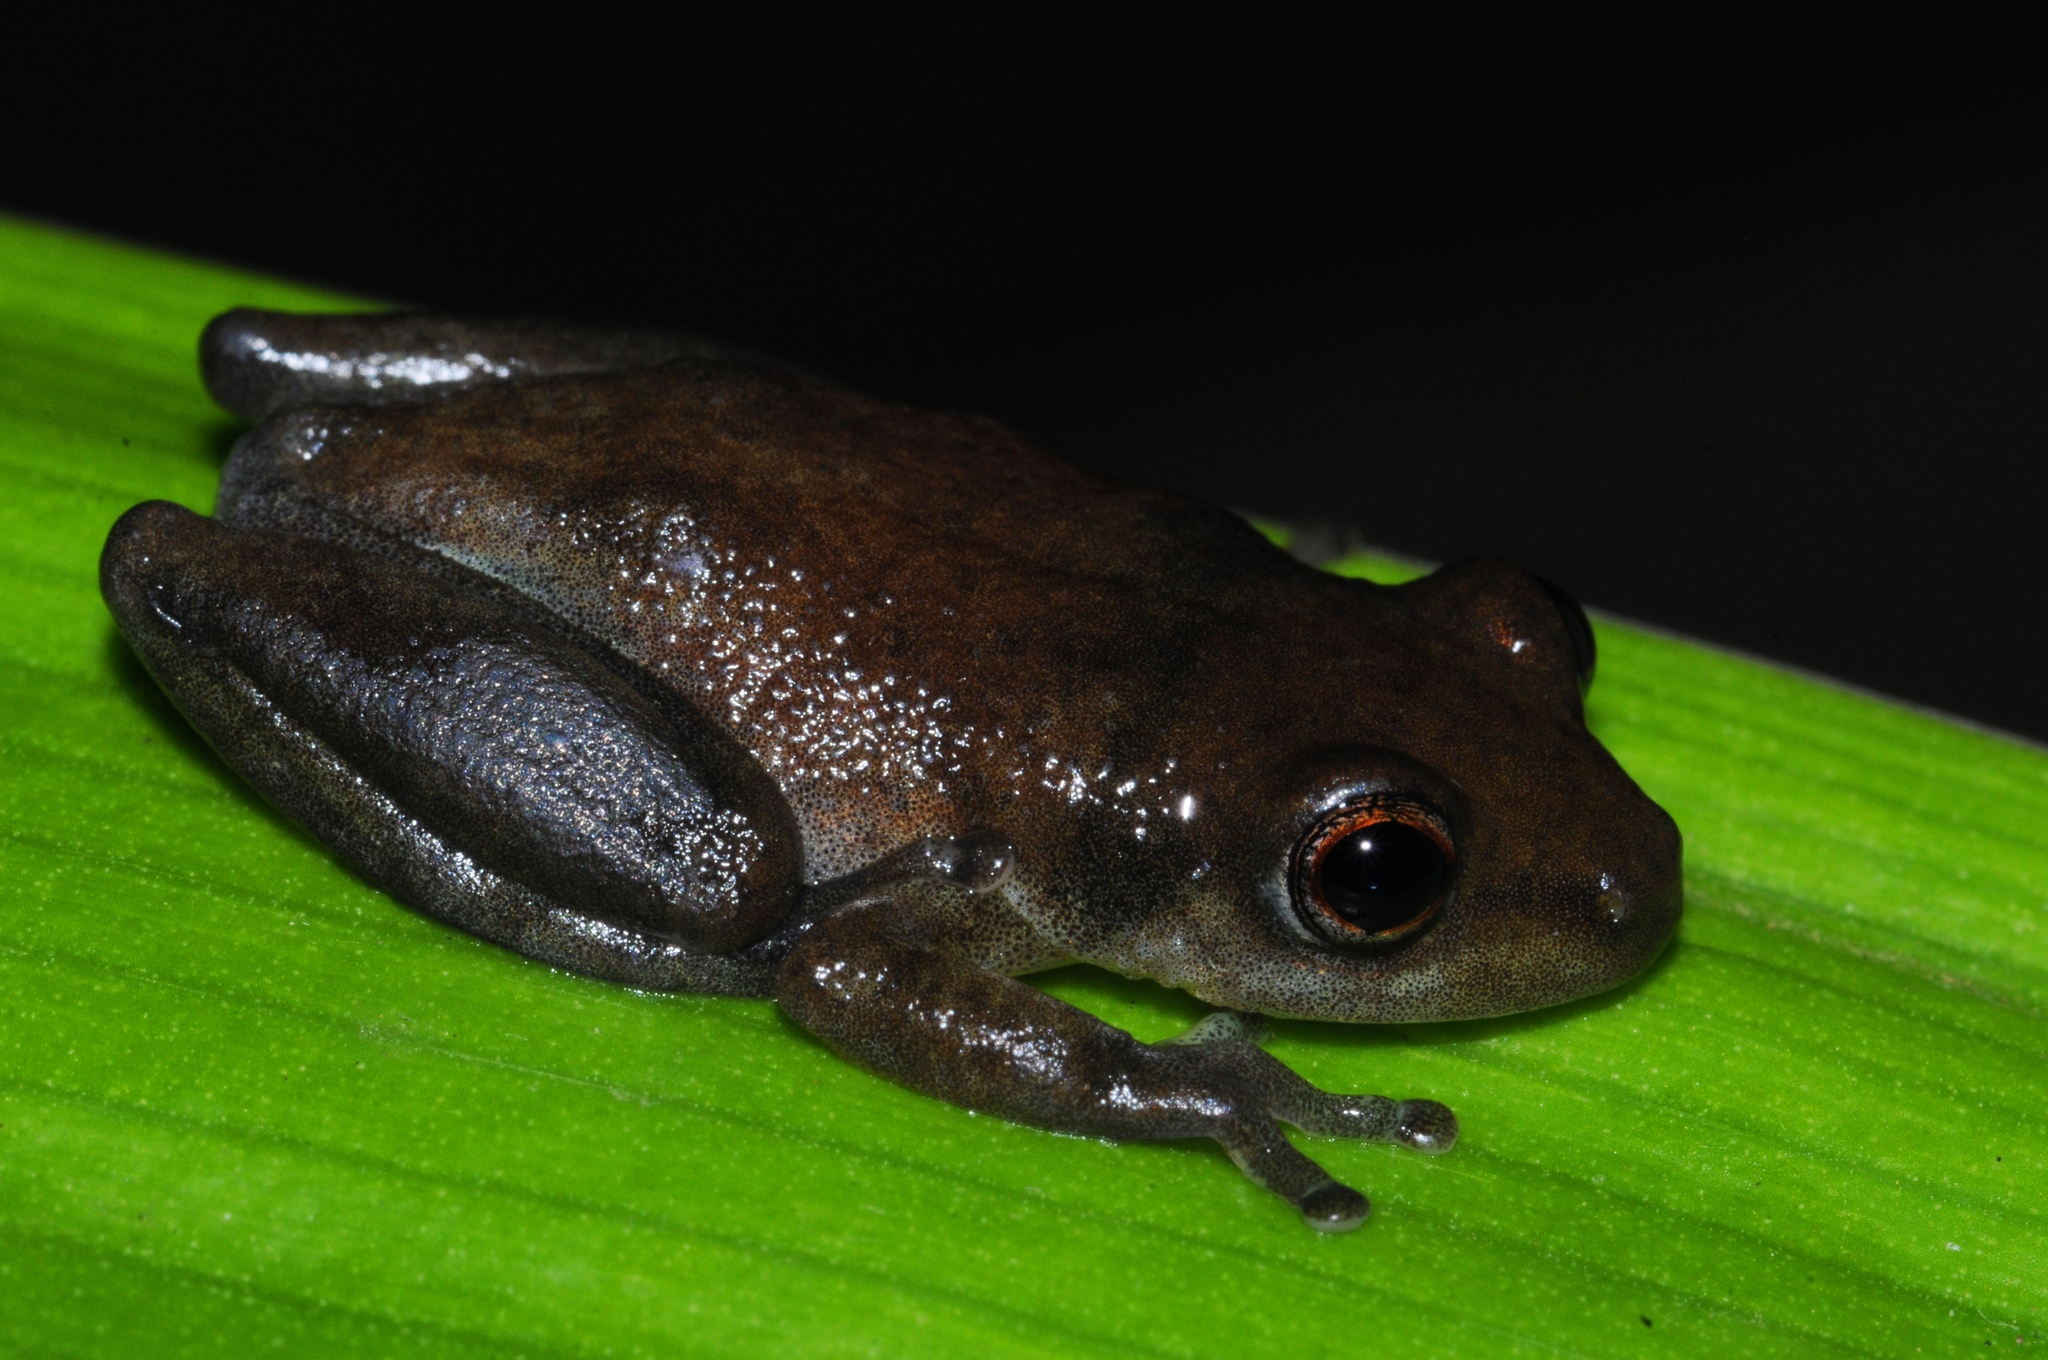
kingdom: Animalia
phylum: Chordata
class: Amphibia
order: Anura
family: Hyperoliidae
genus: Hyperolius
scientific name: Hyperolius stictus
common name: Yellow-spotted reed frog
